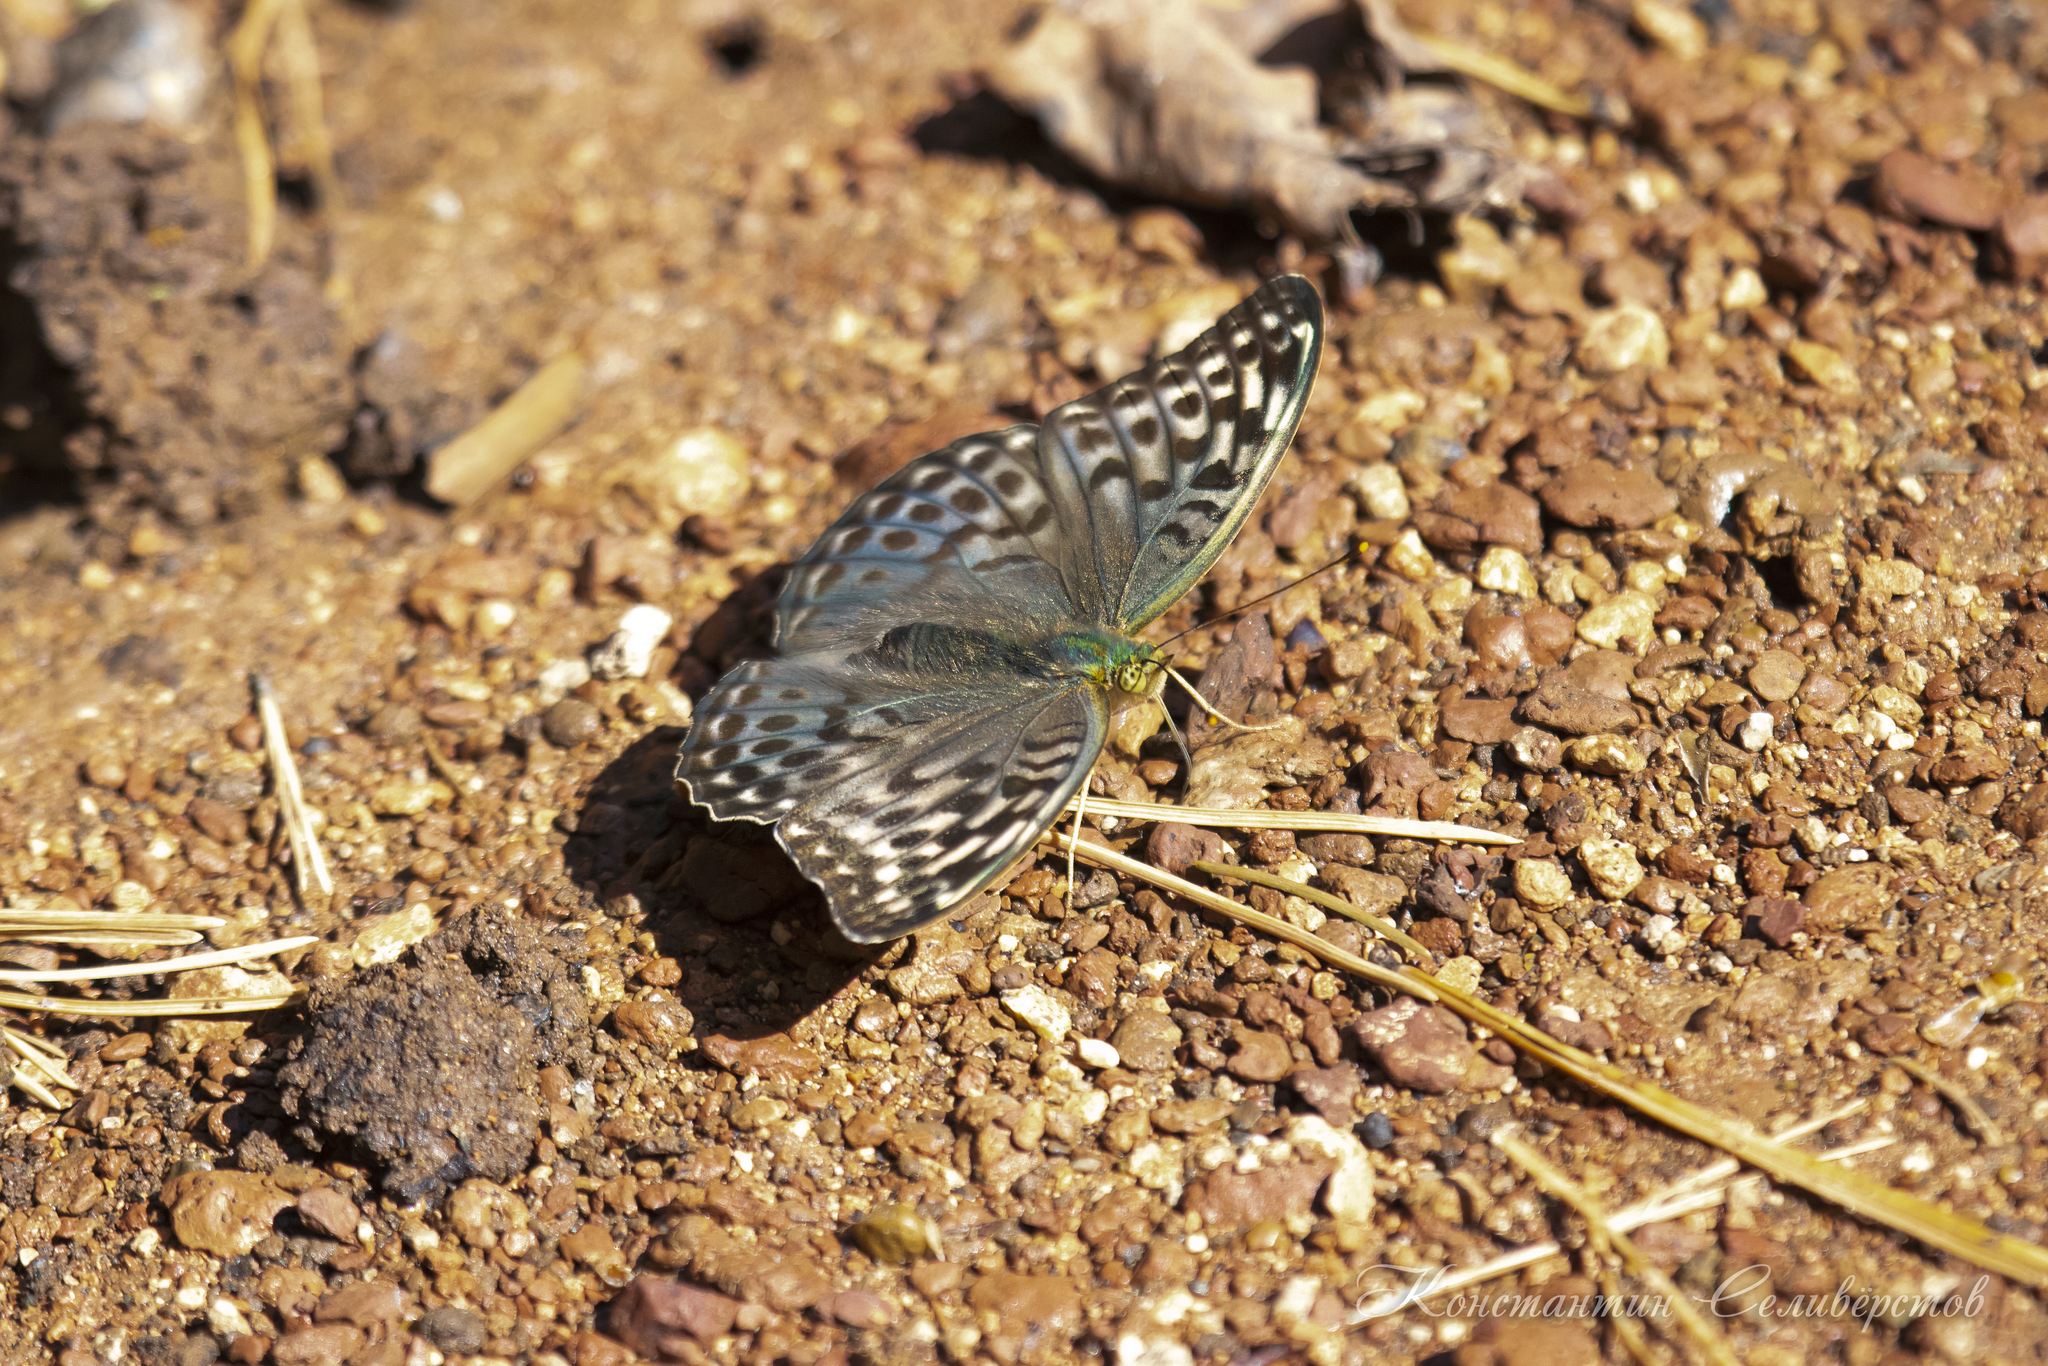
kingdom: Animalia
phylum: Arthropoda
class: Insecta
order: Lepidoptera
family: Nymphalidae
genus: Argynnis
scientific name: Argynnis paphia
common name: Silver-washed fritillary
